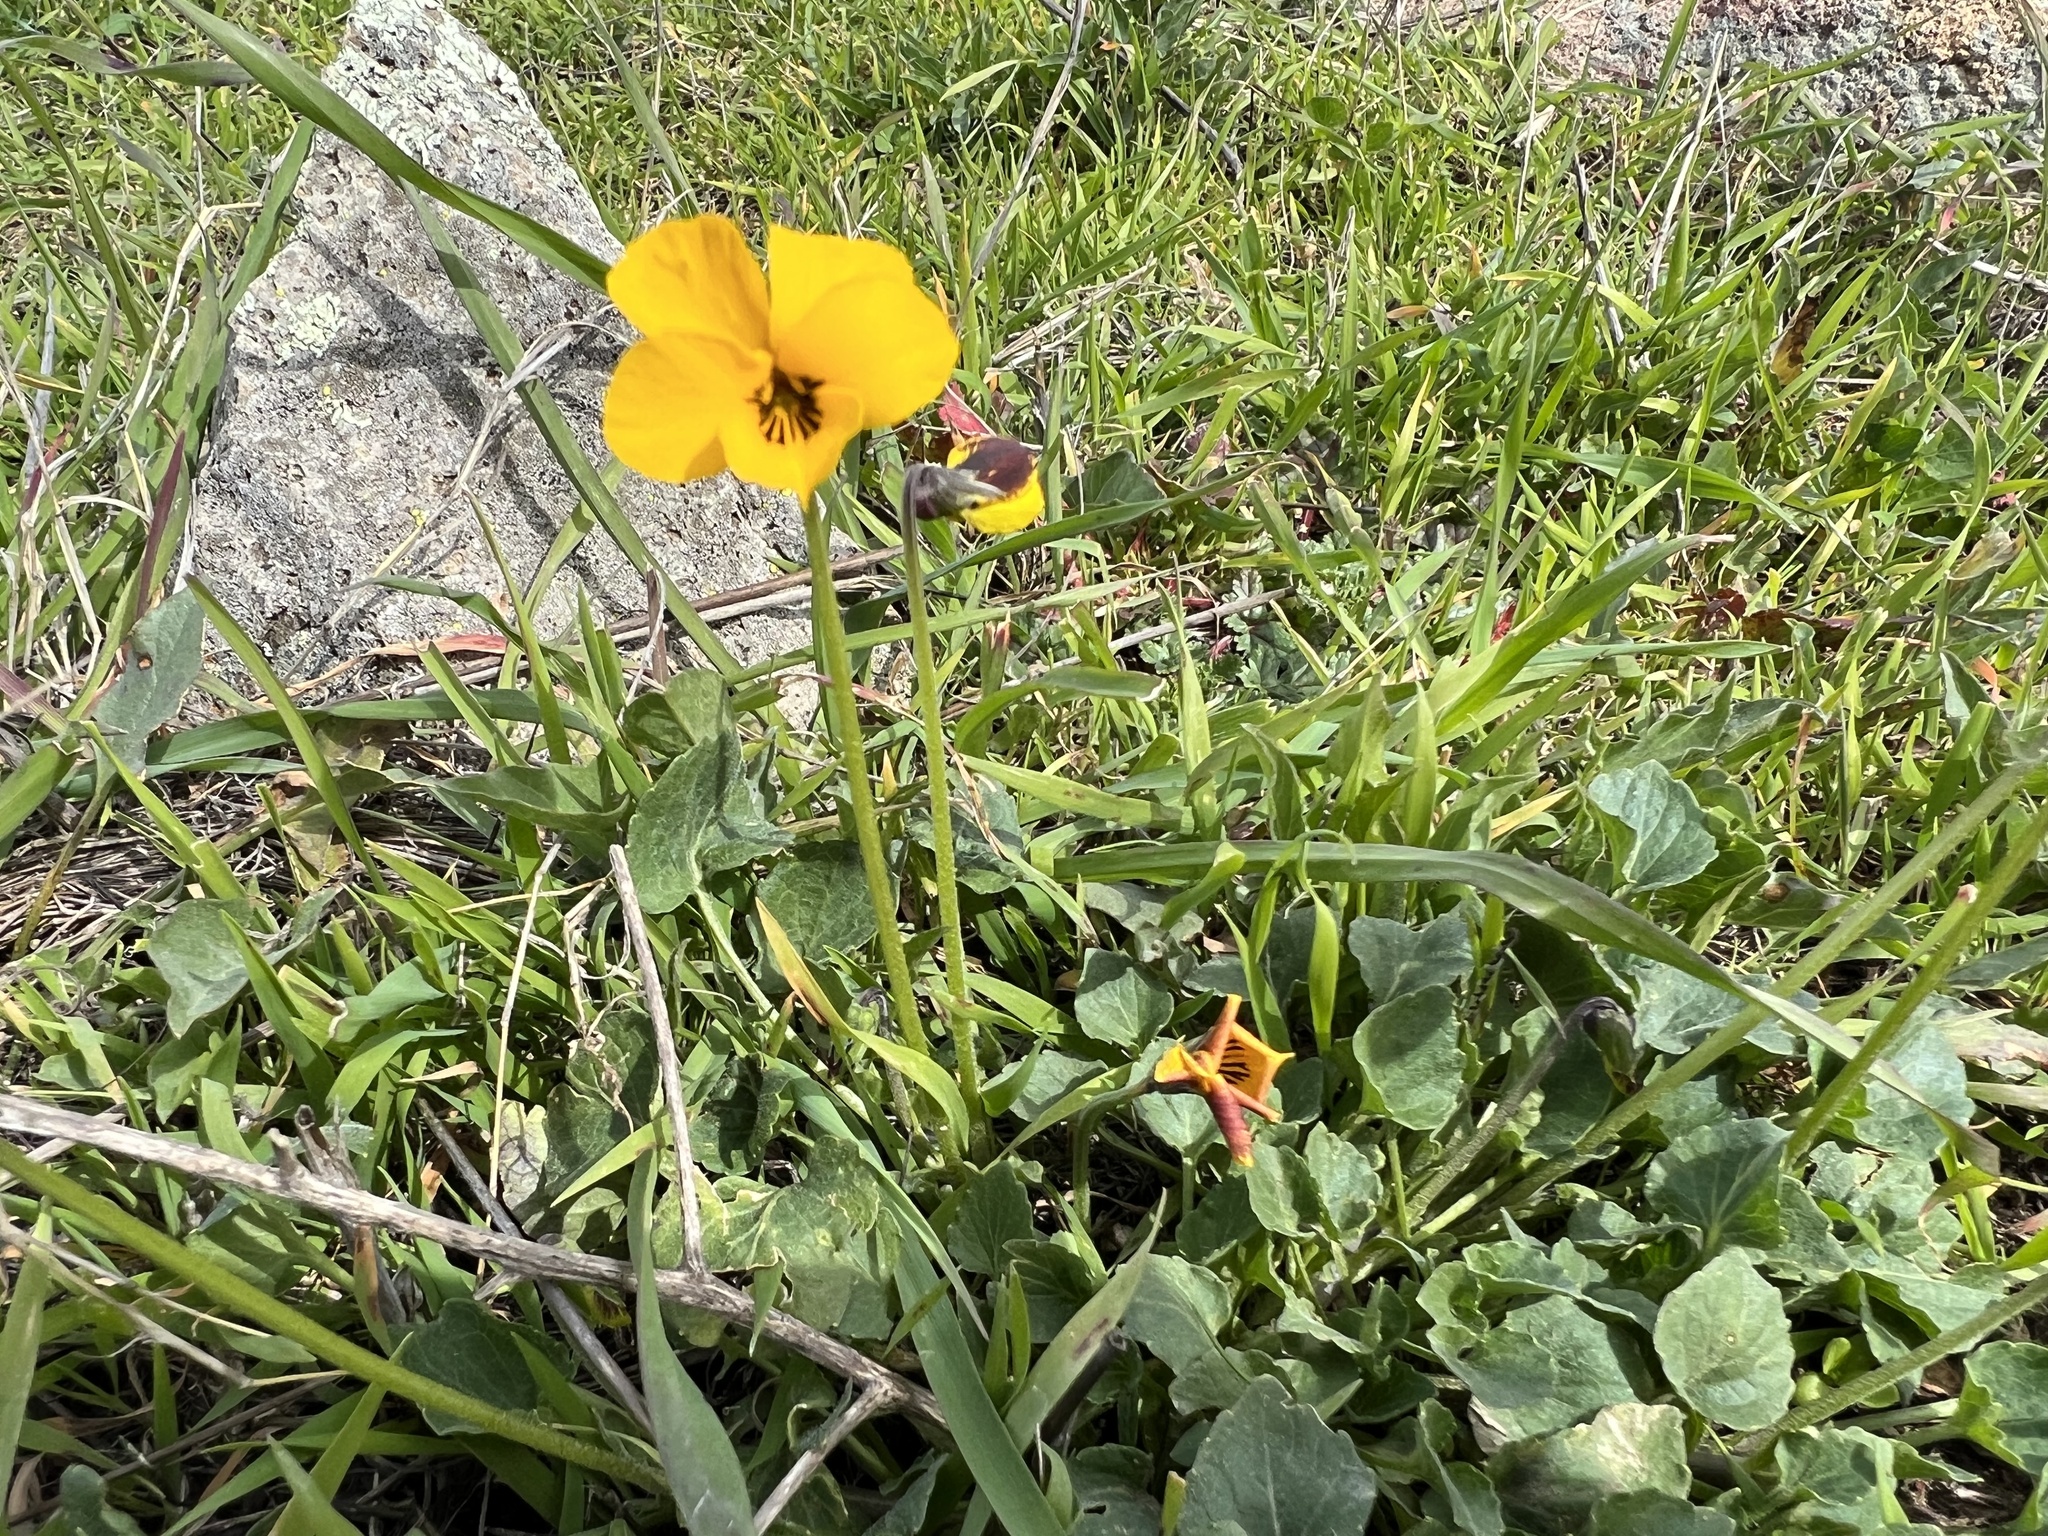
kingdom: Plantae
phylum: Tracheophyta
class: Magnoliopsida
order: Malpighiales
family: Violaceae
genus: Viola
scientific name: Viola pedunculata
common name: California golden violet
